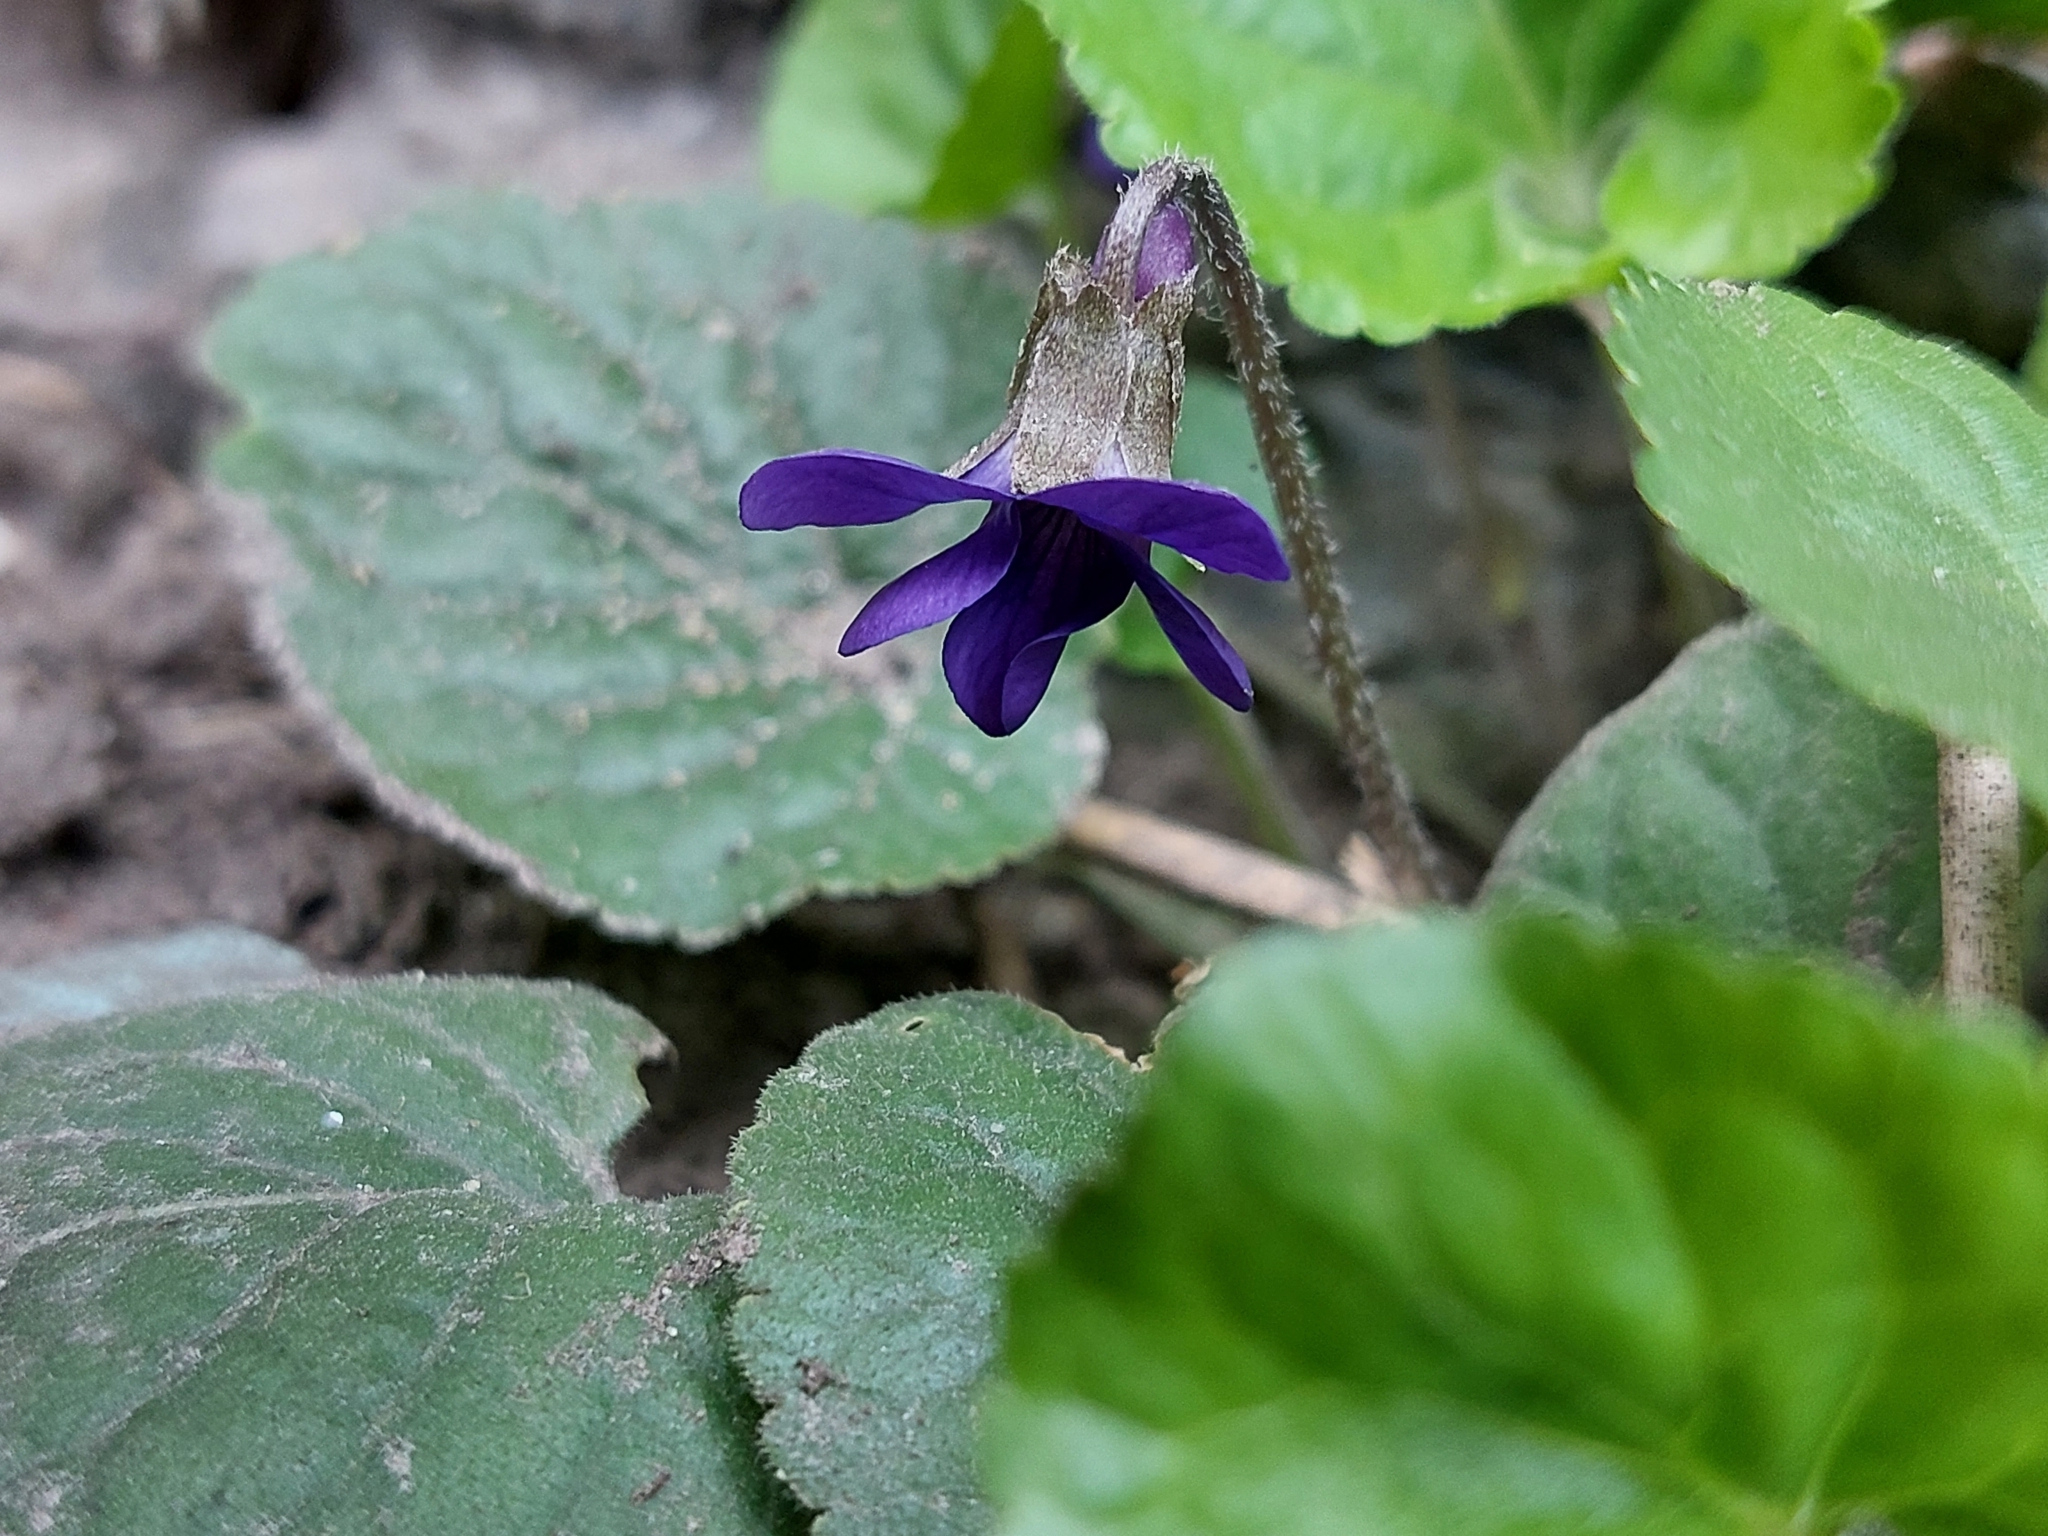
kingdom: Plantae
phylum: Tracheophyta
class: Magnoliopsida
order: Malpighiales
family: Violaceae
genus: Viola
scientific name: Viola odorata
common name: Sweet violet
